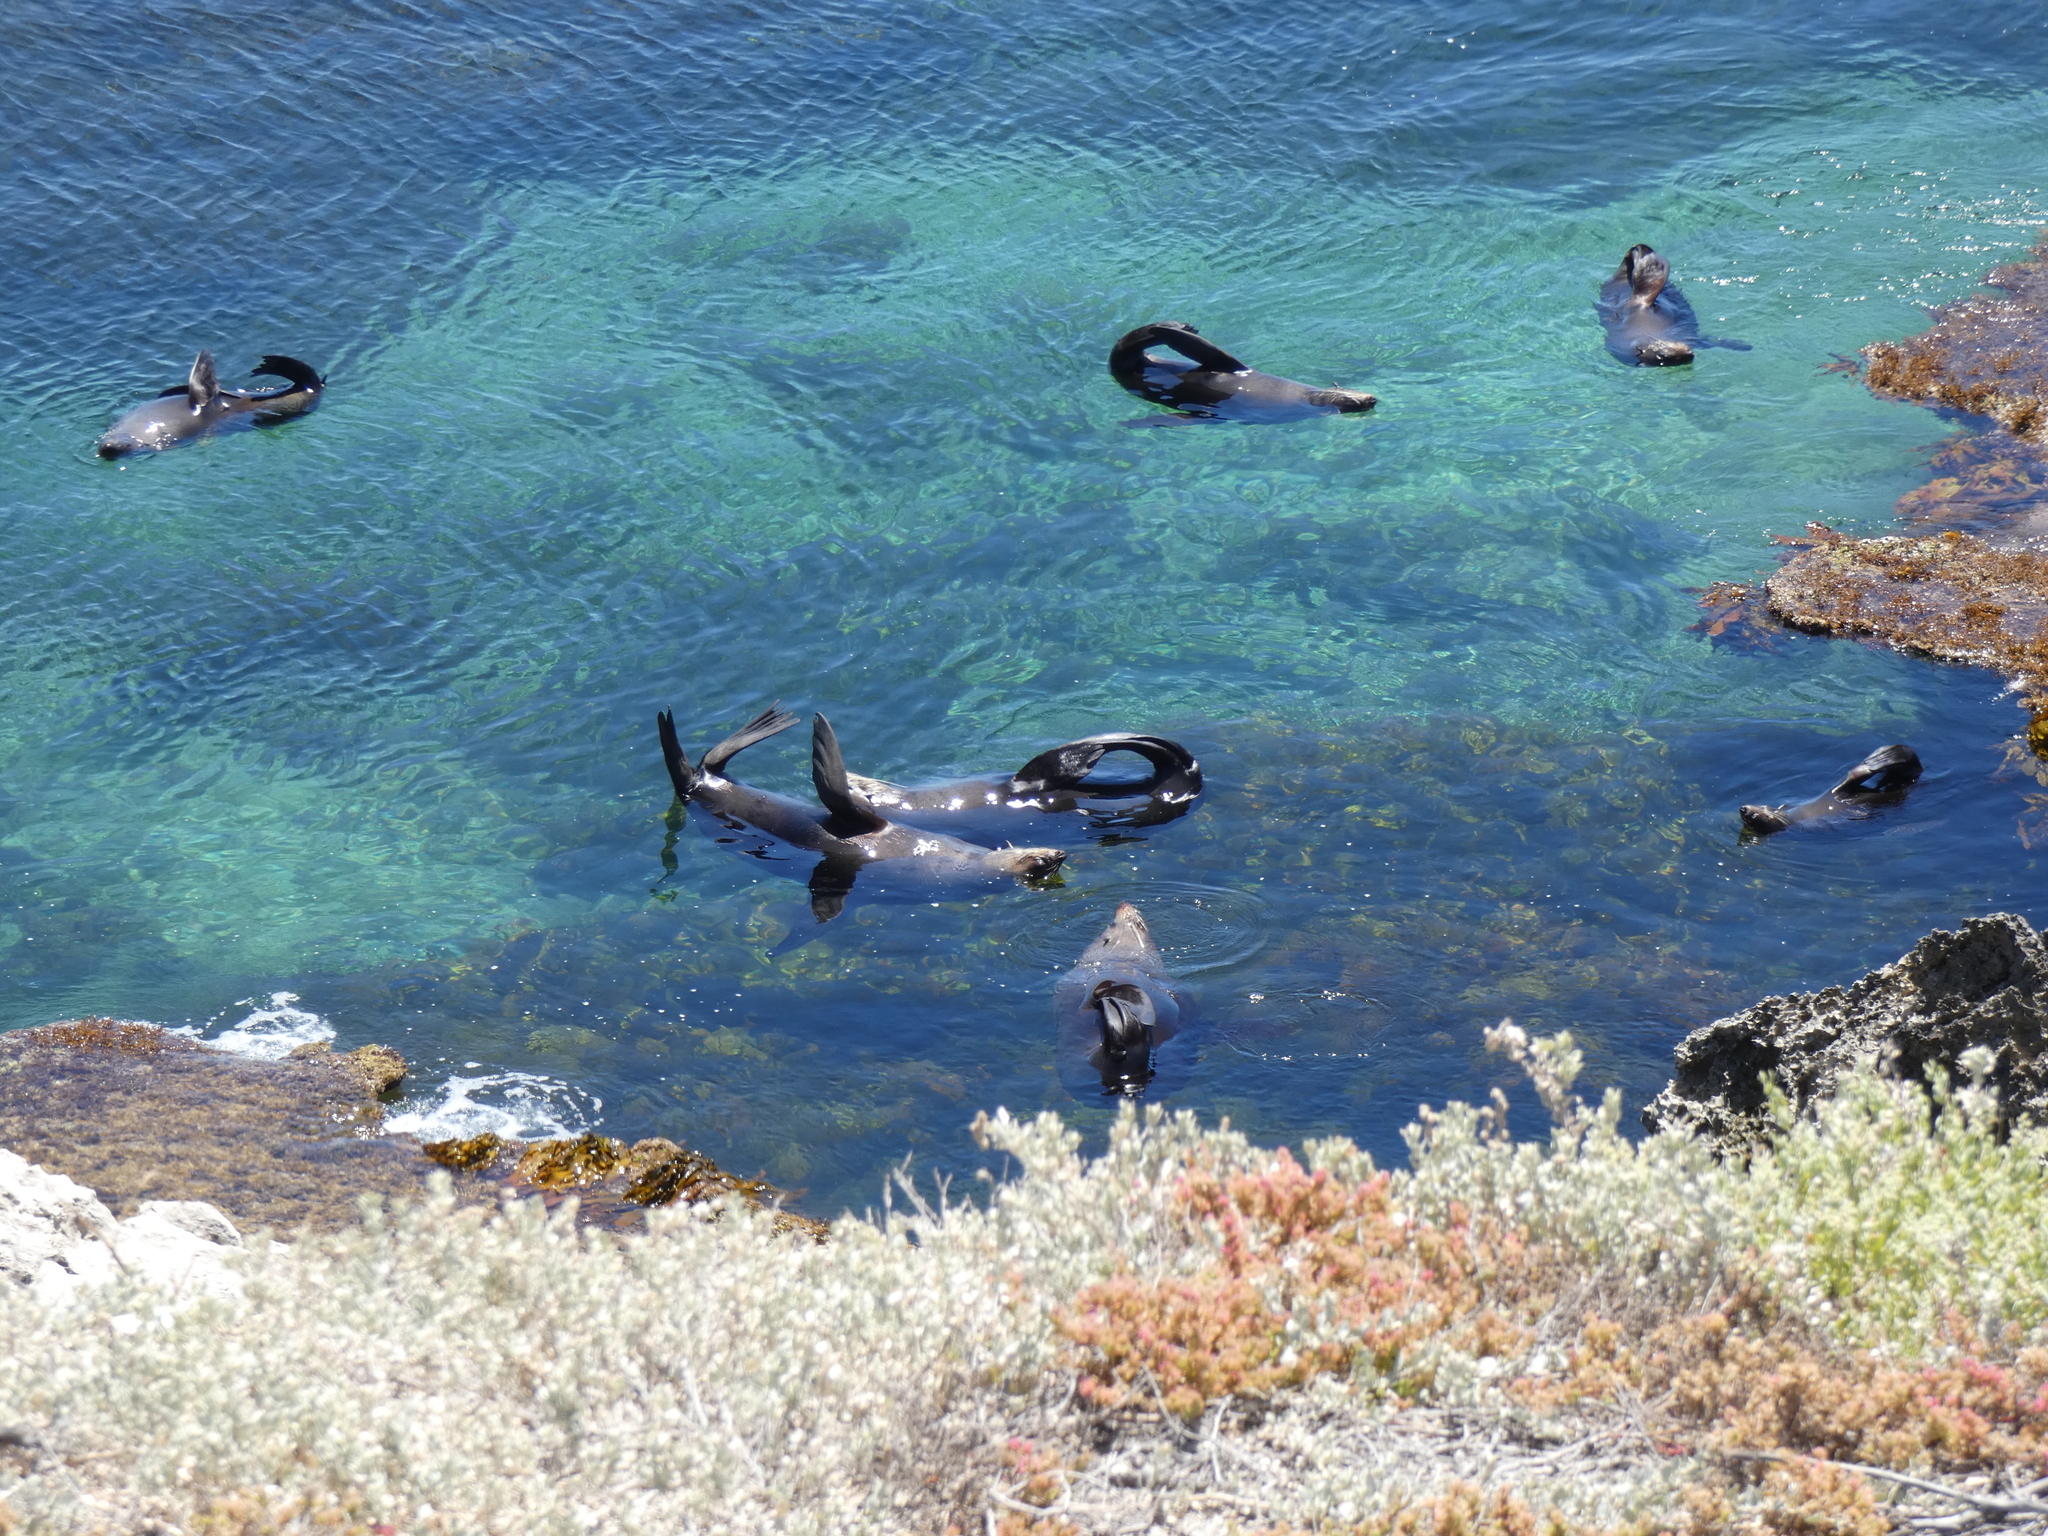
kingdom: Animalia
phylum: Chordata
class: Mammalia
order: Carnivora
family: Otariidae
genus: Arctocephalus
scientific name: Arctocephalus forsteri
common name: New zealand fur seal
